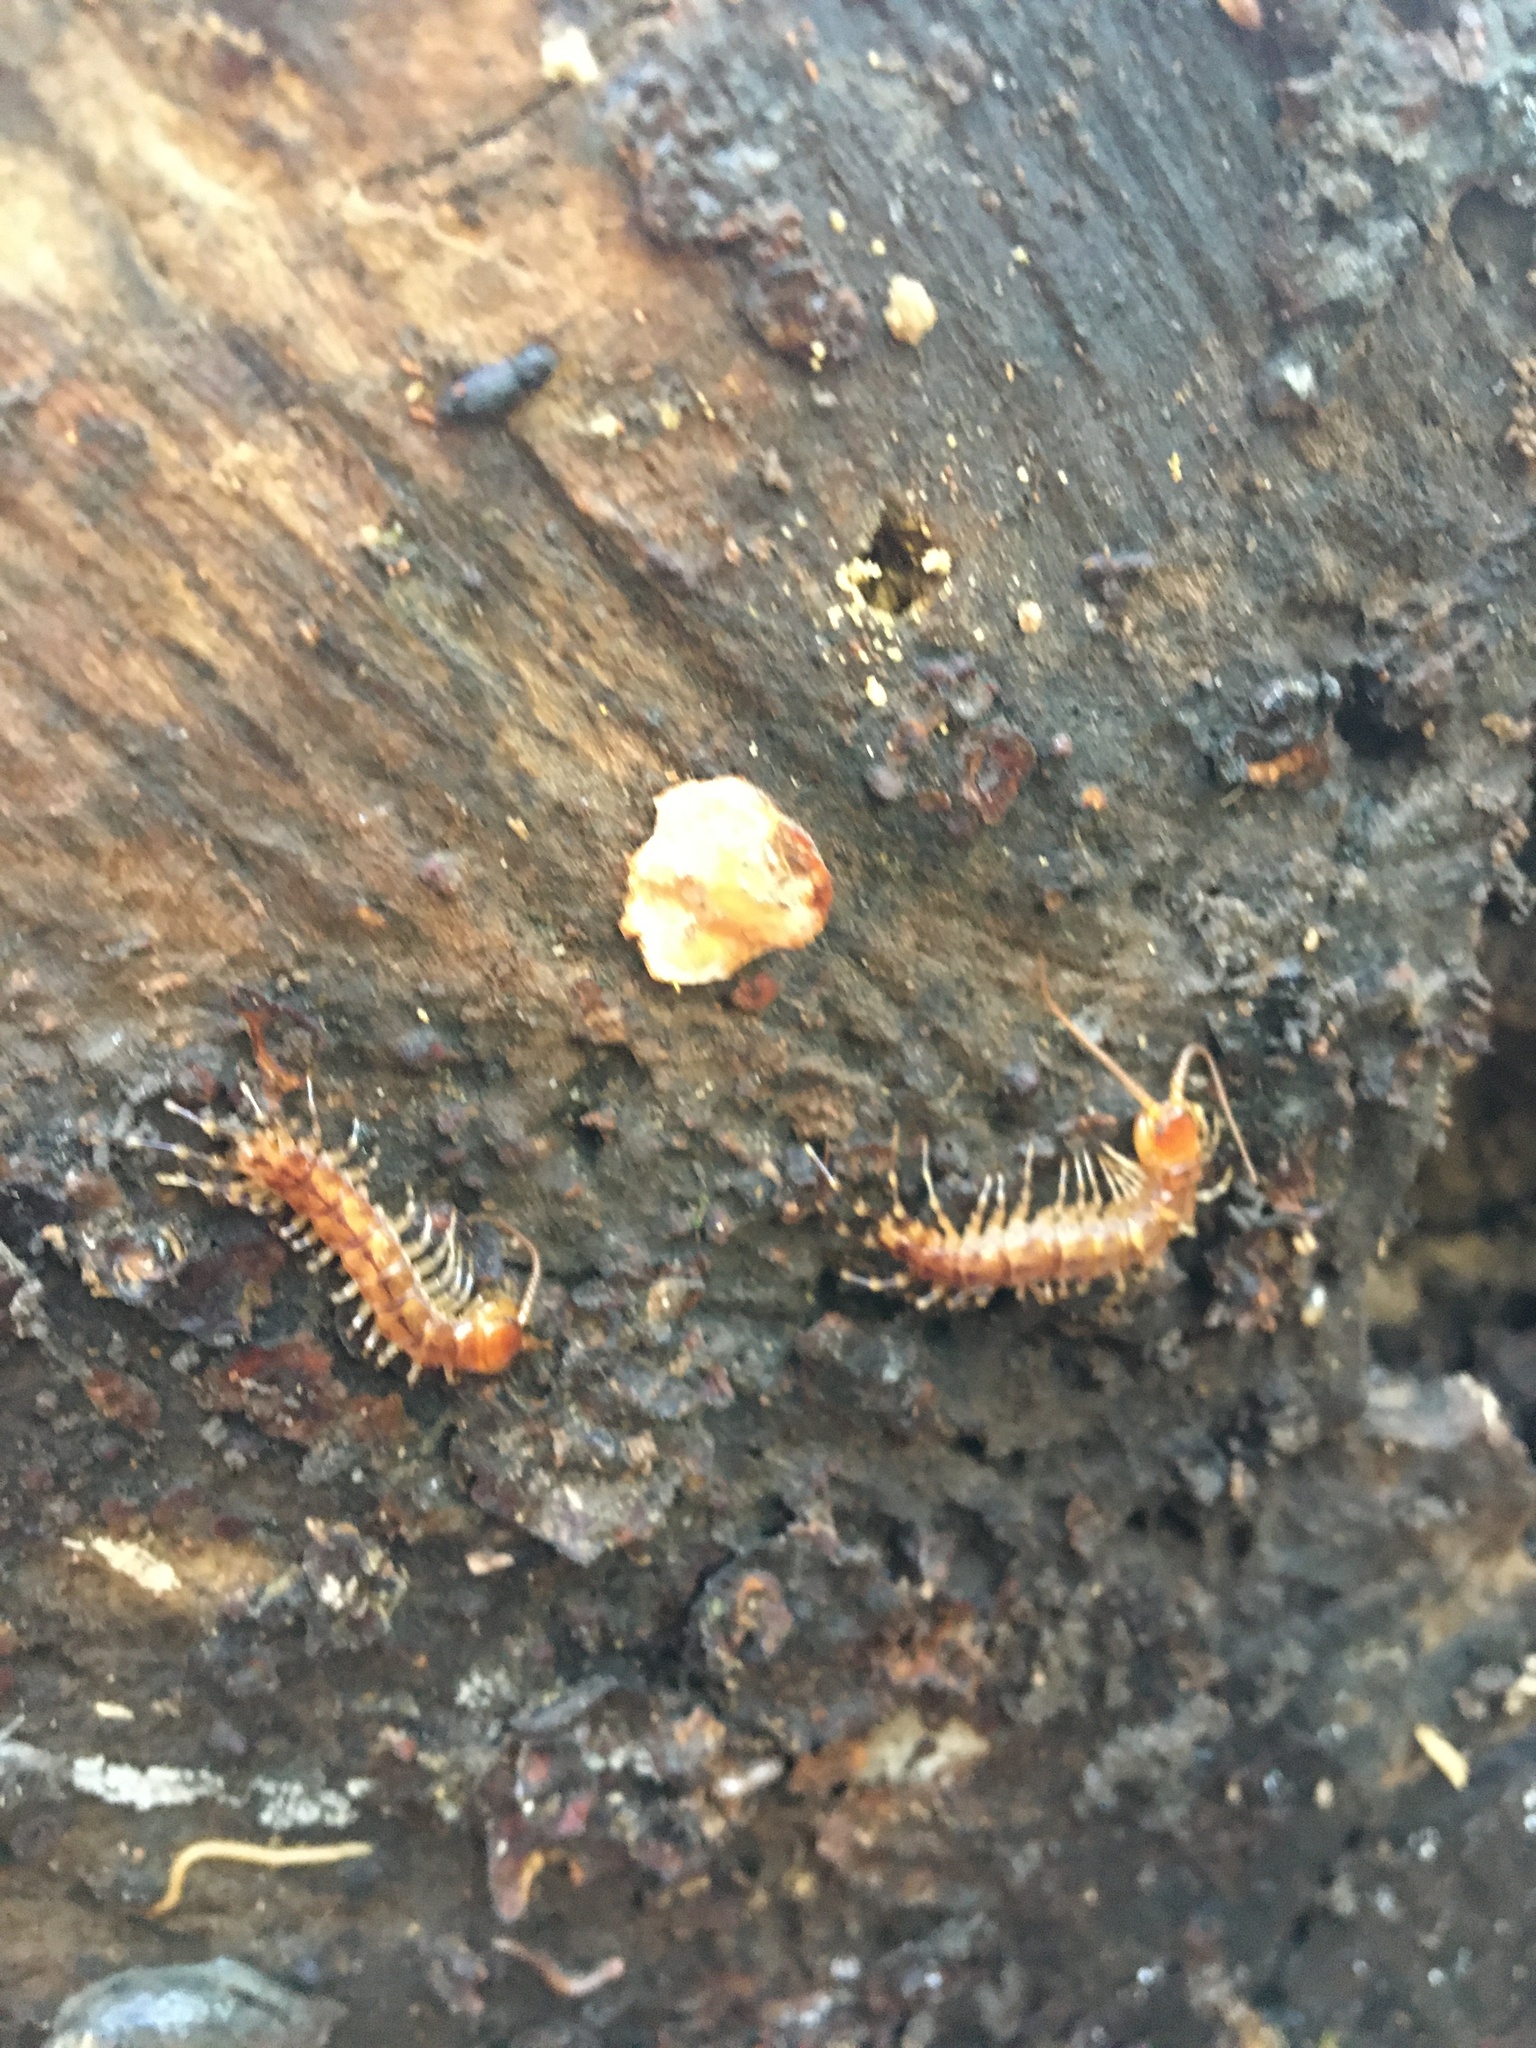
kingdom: Animalia
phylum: Arthropoda
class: Chilopoda
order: Lithobiomorpha
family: Lithobiidae
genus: Lithobius
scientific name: Lithobius variegatus
